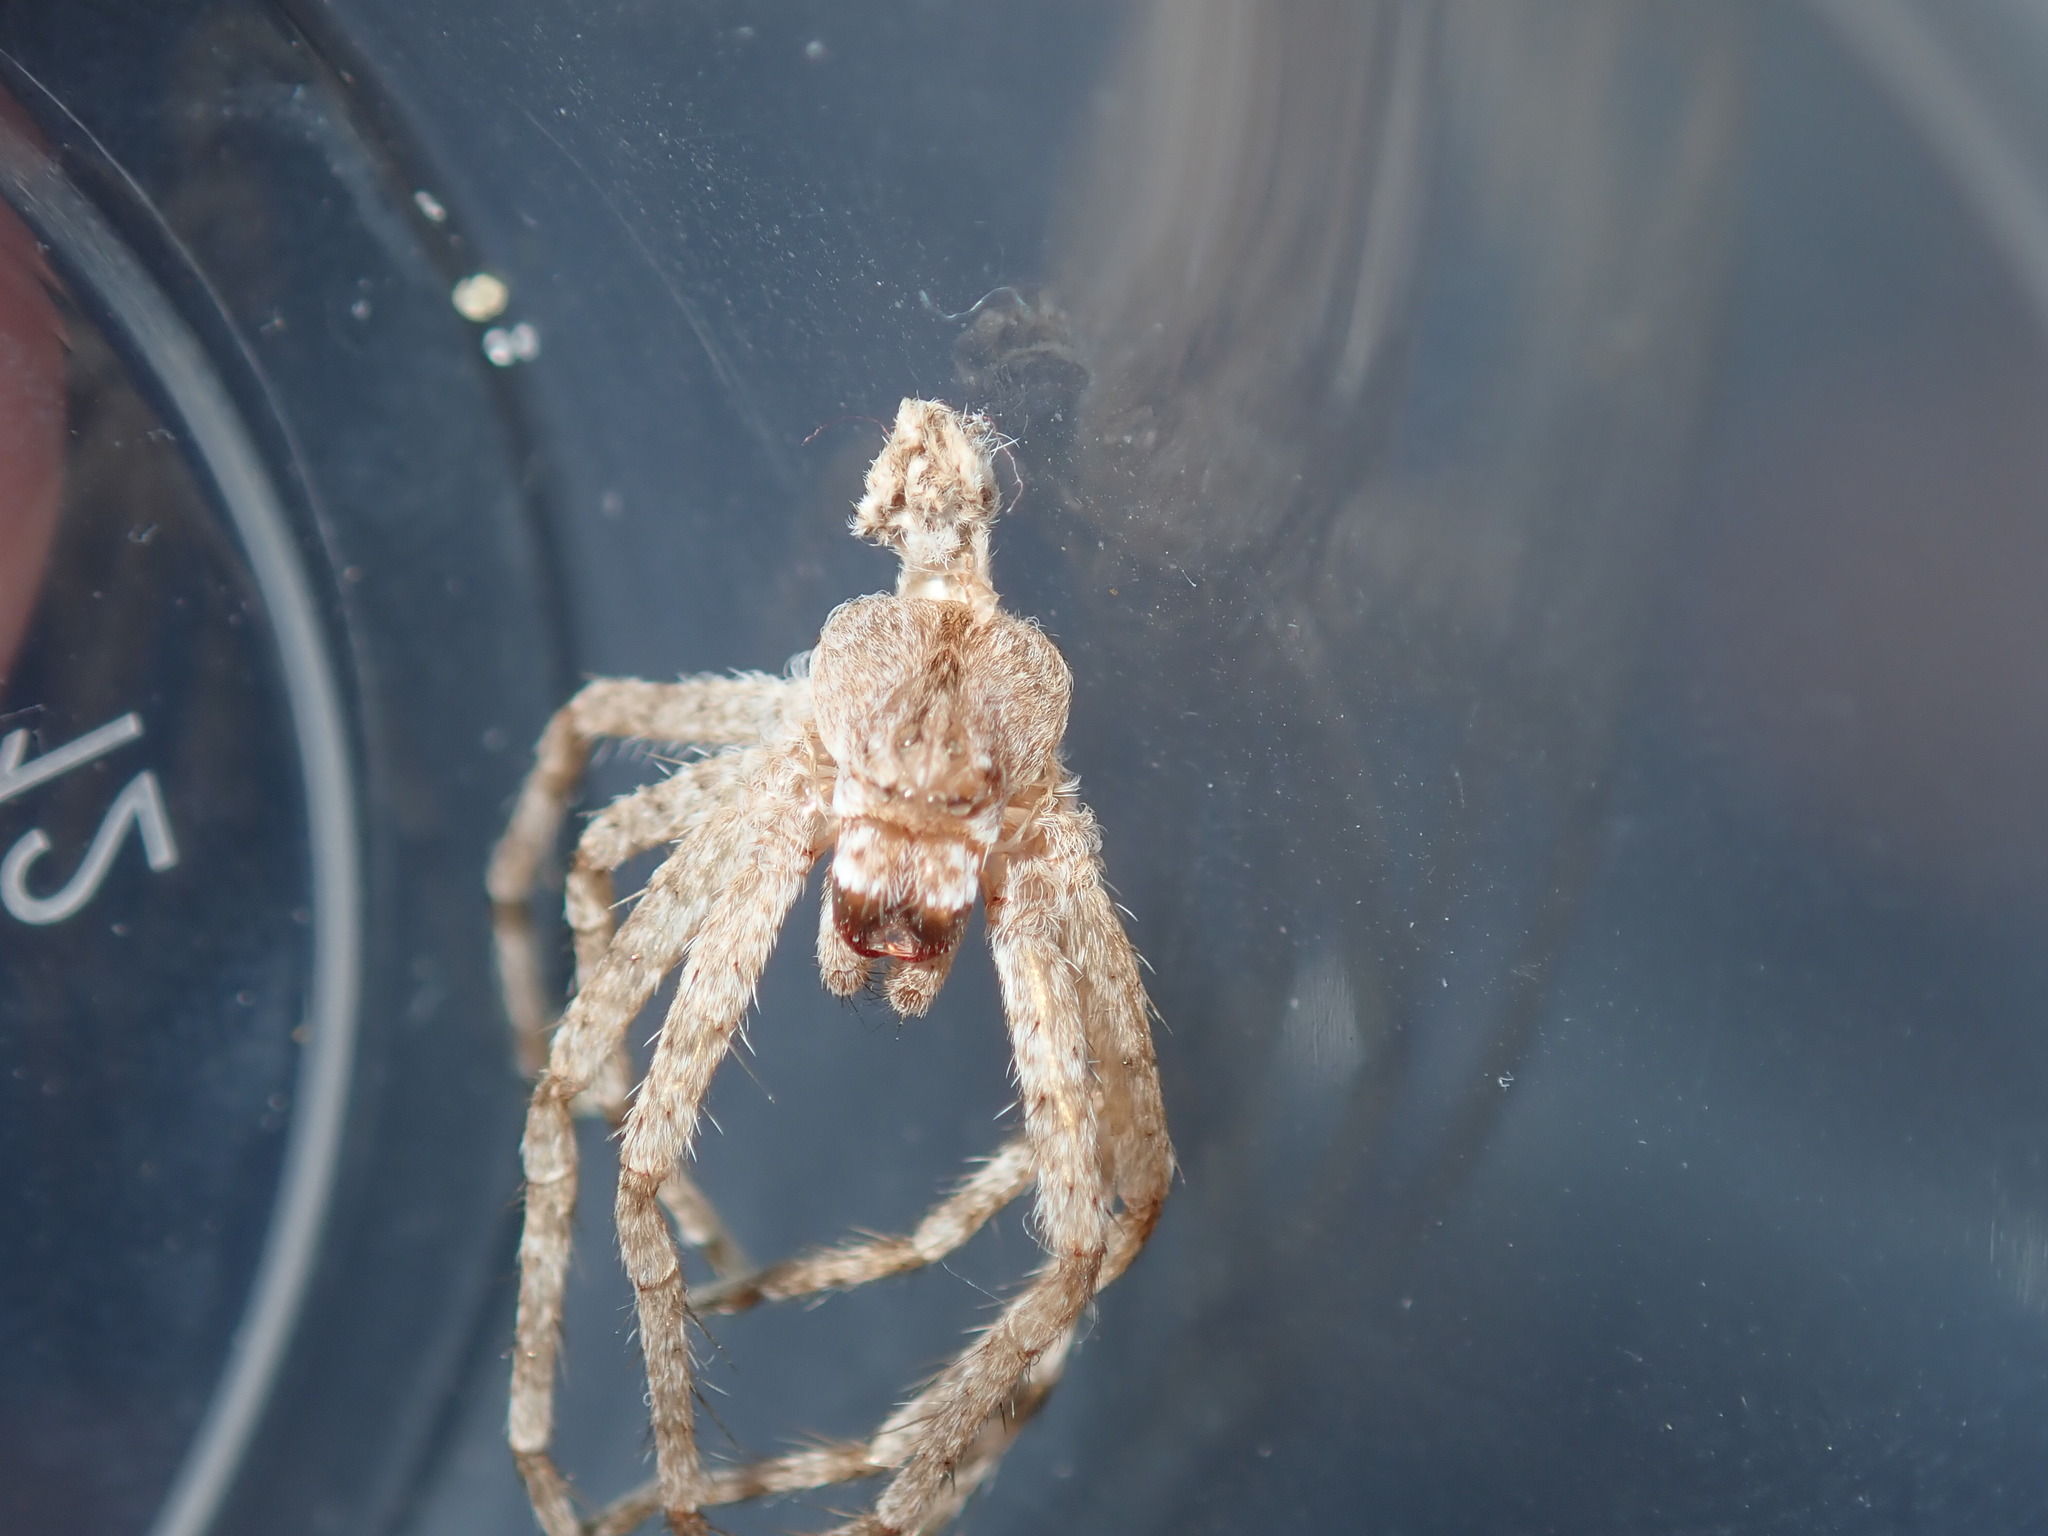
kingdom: Animalia
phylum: Arthropoda
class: Arachnida
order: Araneae
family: Sparassidae
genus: Pediana
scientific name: Pediana regina
